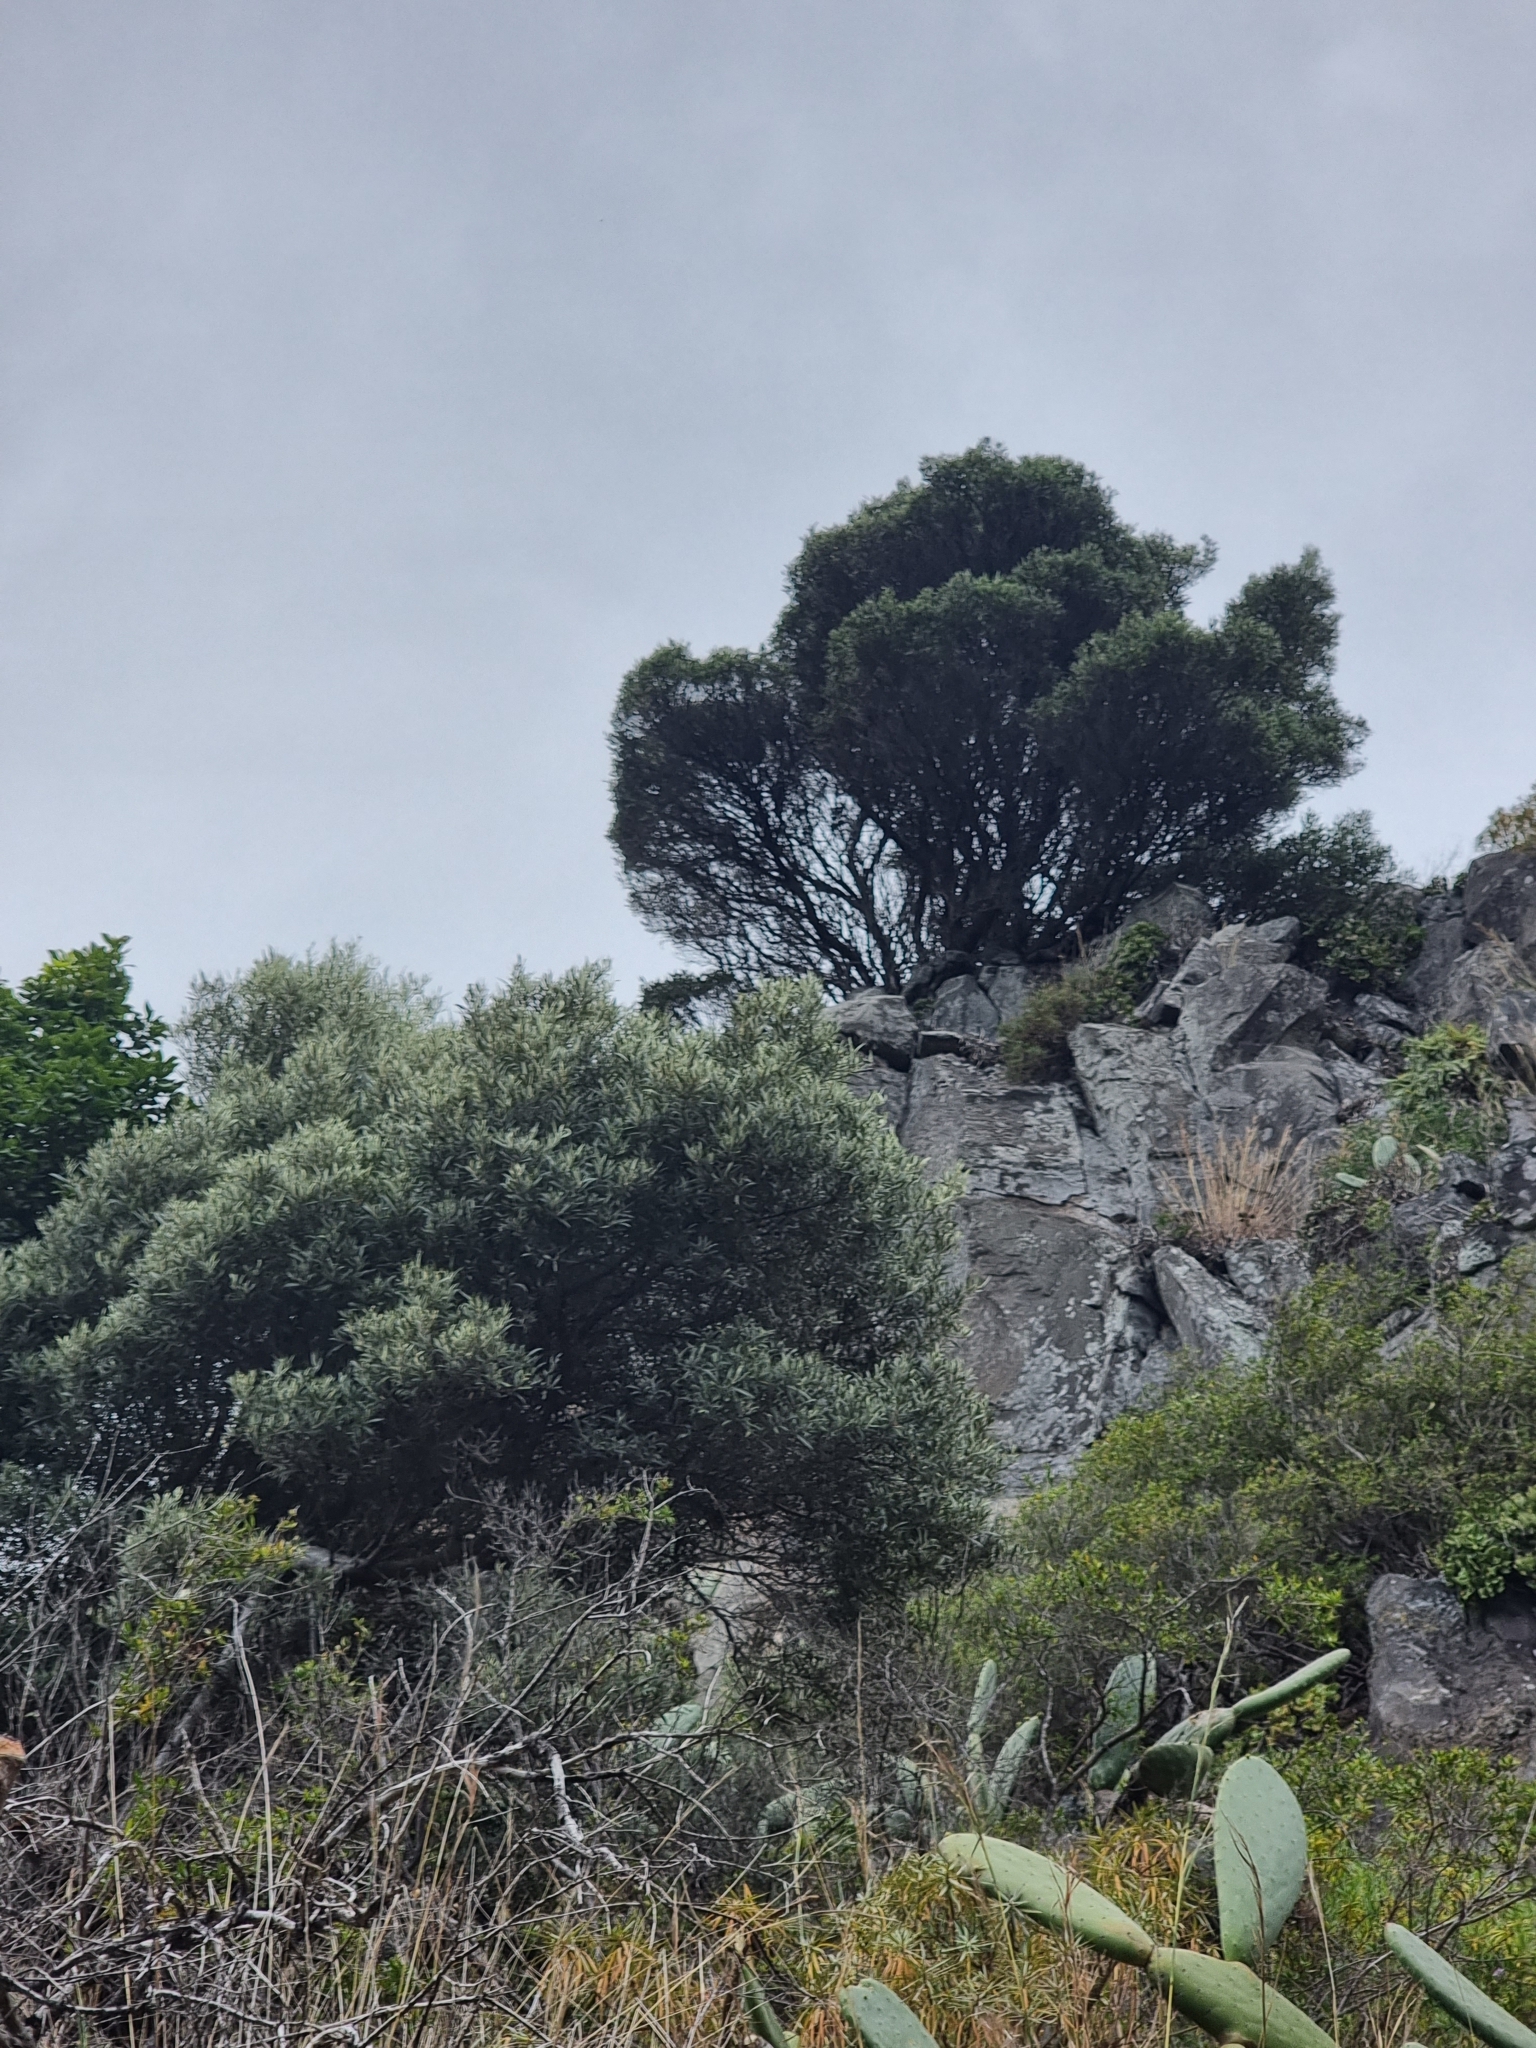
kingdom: Plantae
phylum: Tracheophyta
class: Magnoliopsida
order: Lamiales
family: Oleaceae
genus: Olea
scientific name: Olea europaea
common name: Olive
